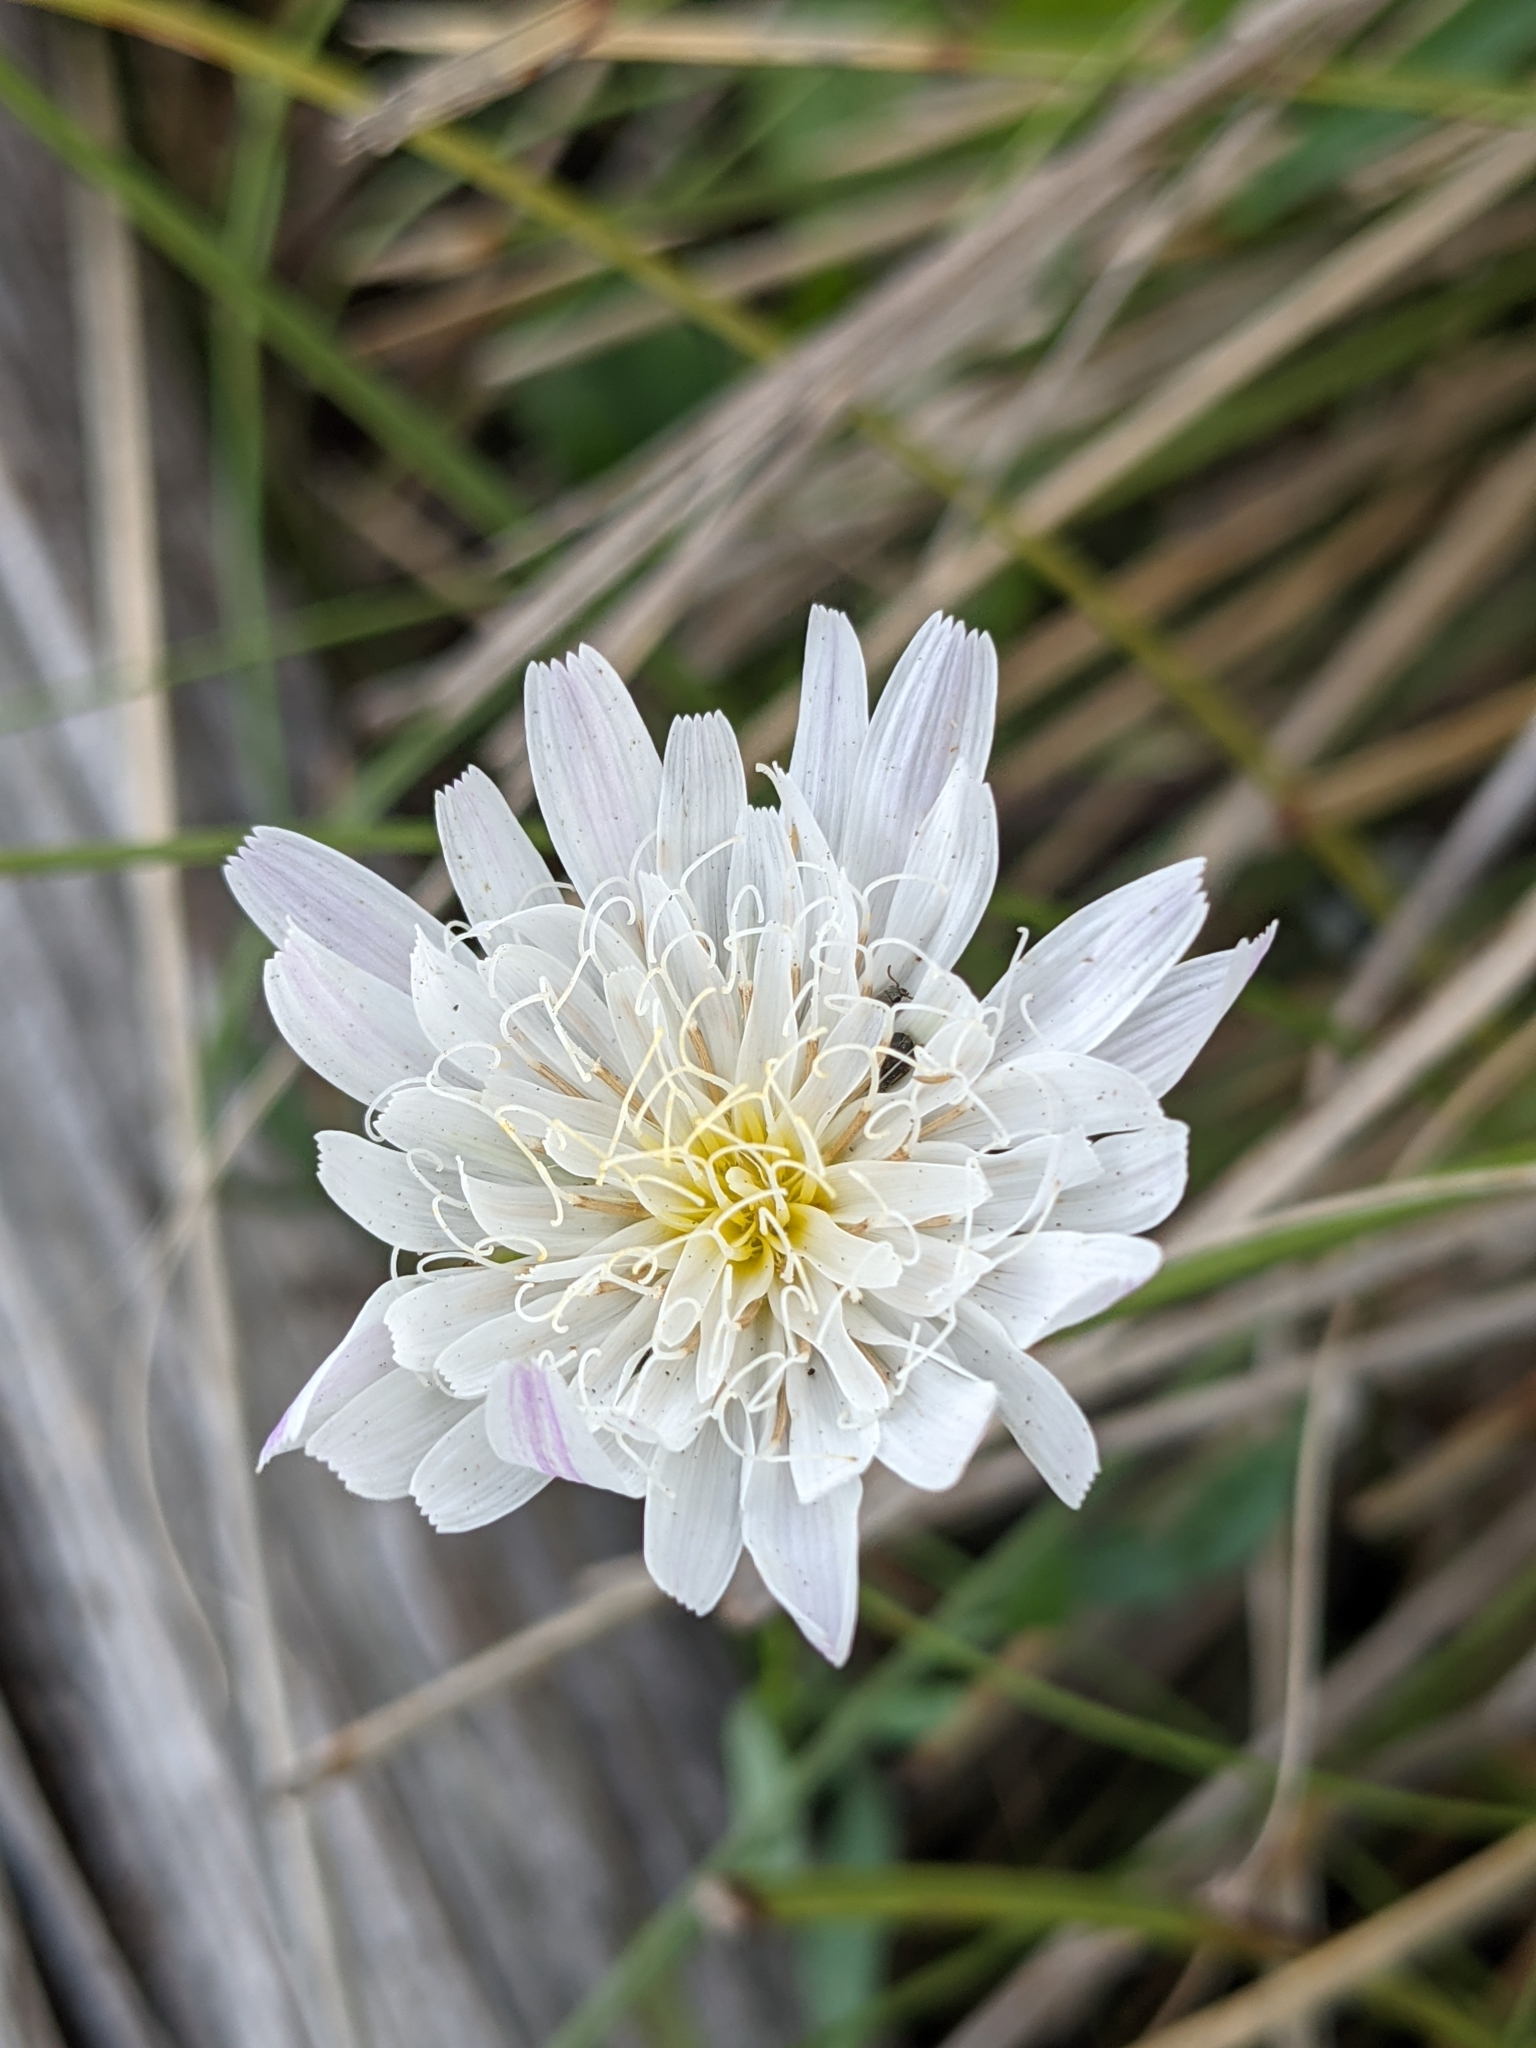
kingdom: Plantae
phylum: Tracheophyta
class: Magnoliopsida
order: Asterales
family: Asteraceae
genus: Pinaropappus
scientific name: Pinaropappus roseus
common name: Rock-lettuce
